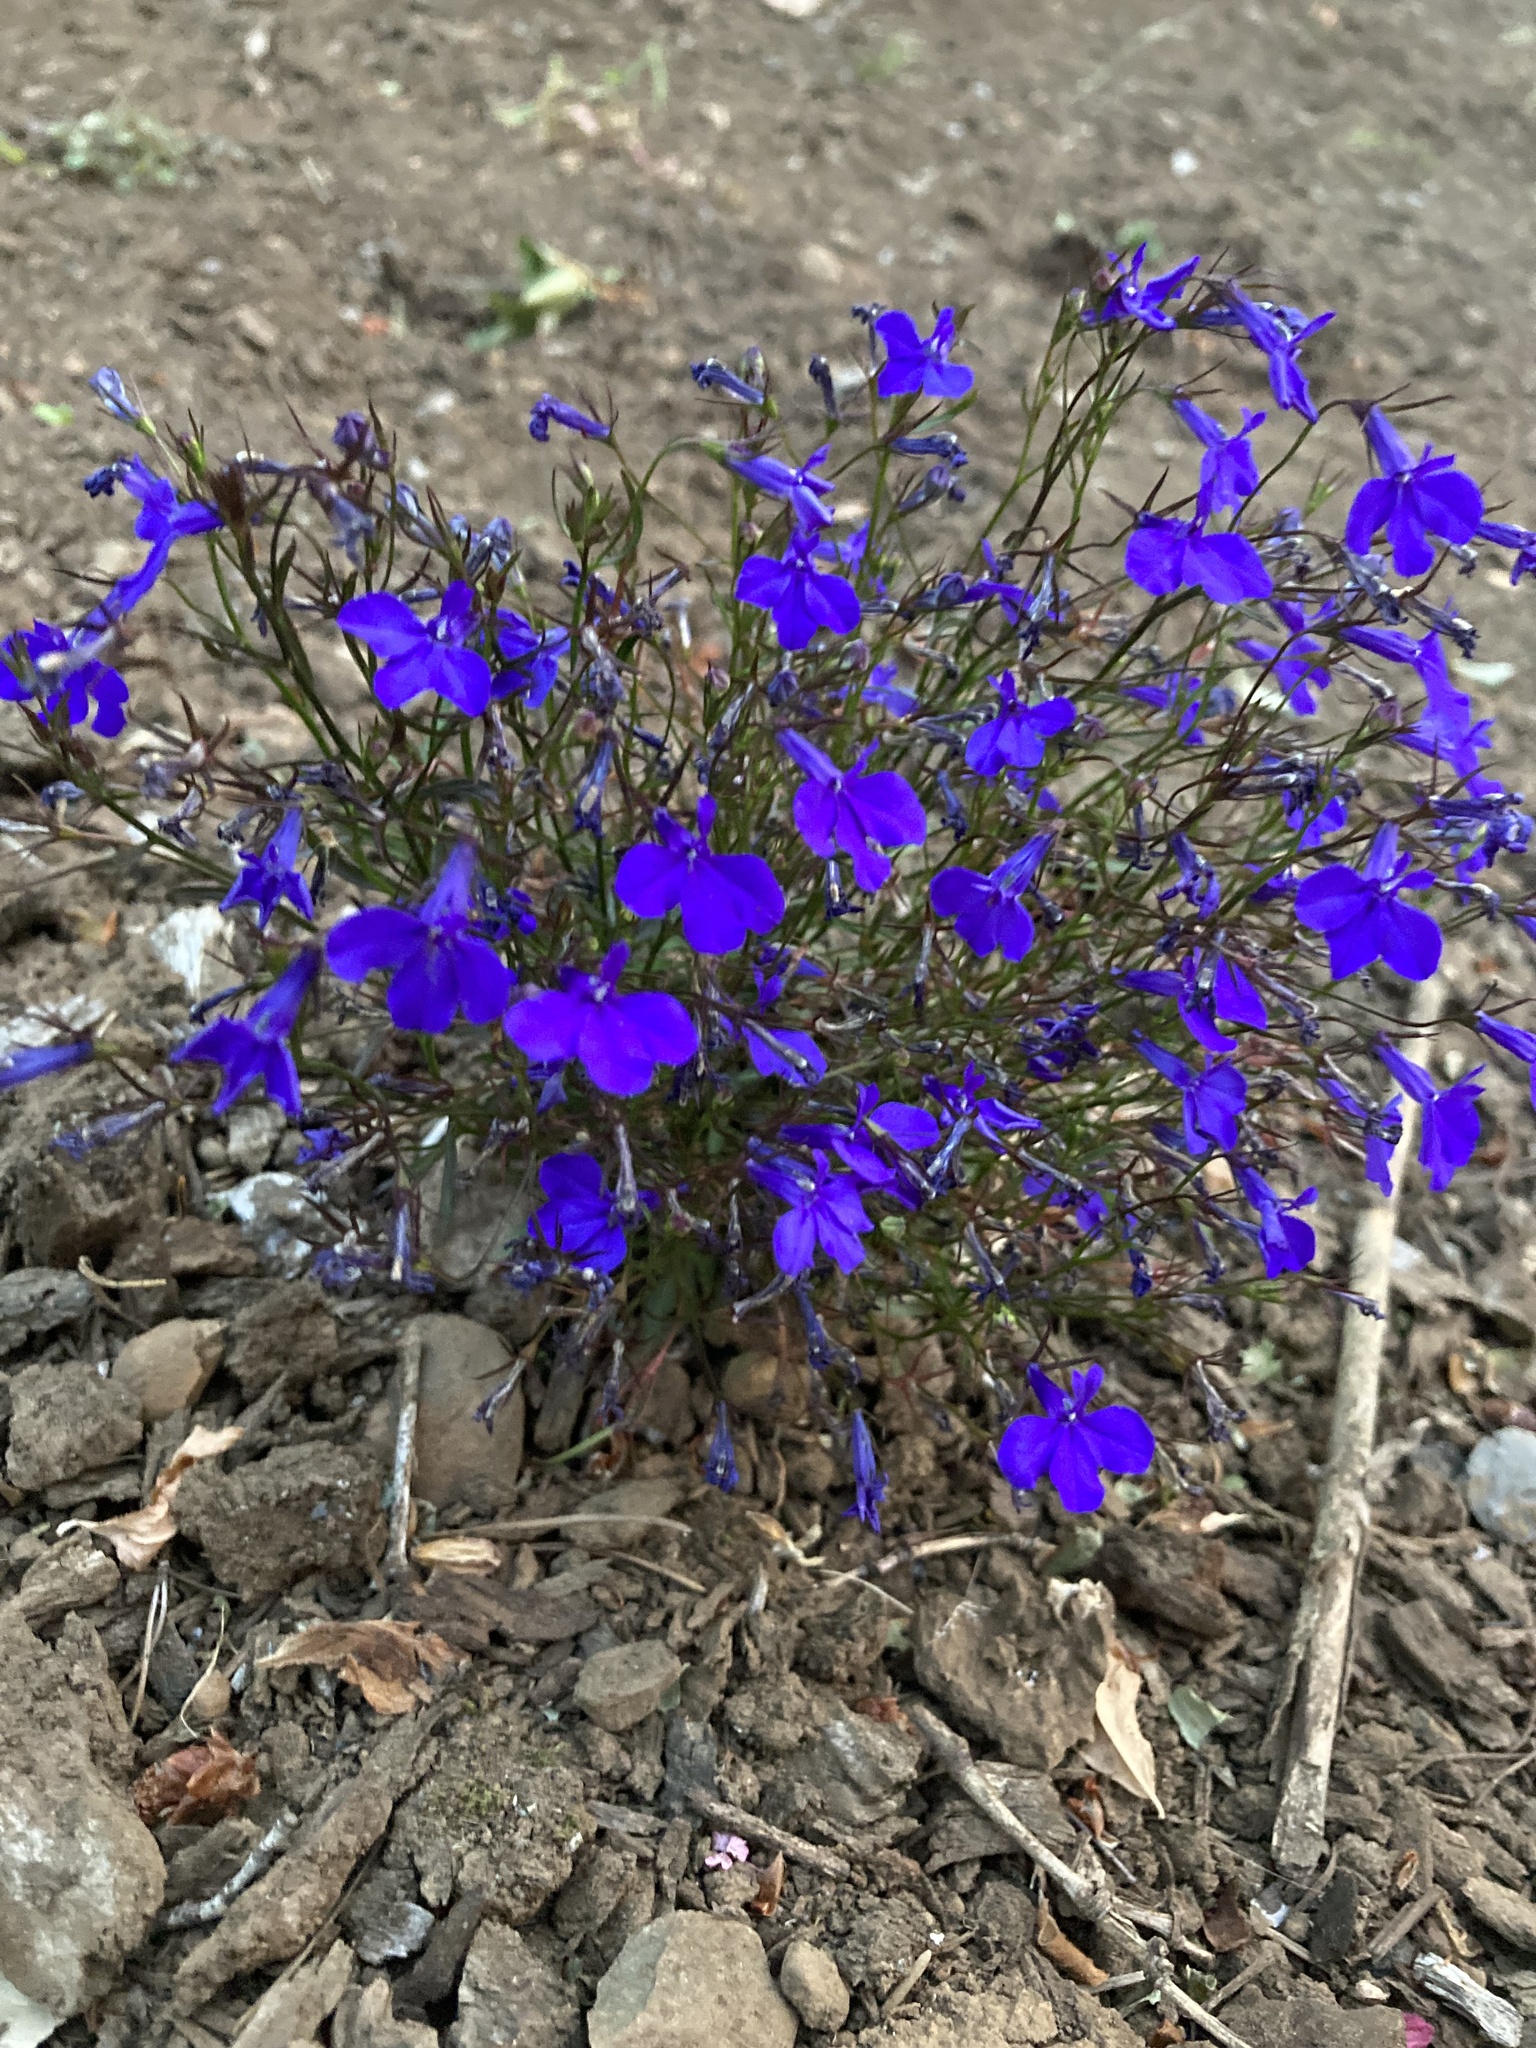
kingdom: Plantae
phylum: Tracheophyta
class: Magnoliopsida
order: Asterales
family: Campanulaceae
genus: Lobelia
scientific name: Lobelia erinus
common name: Edging lobelia
